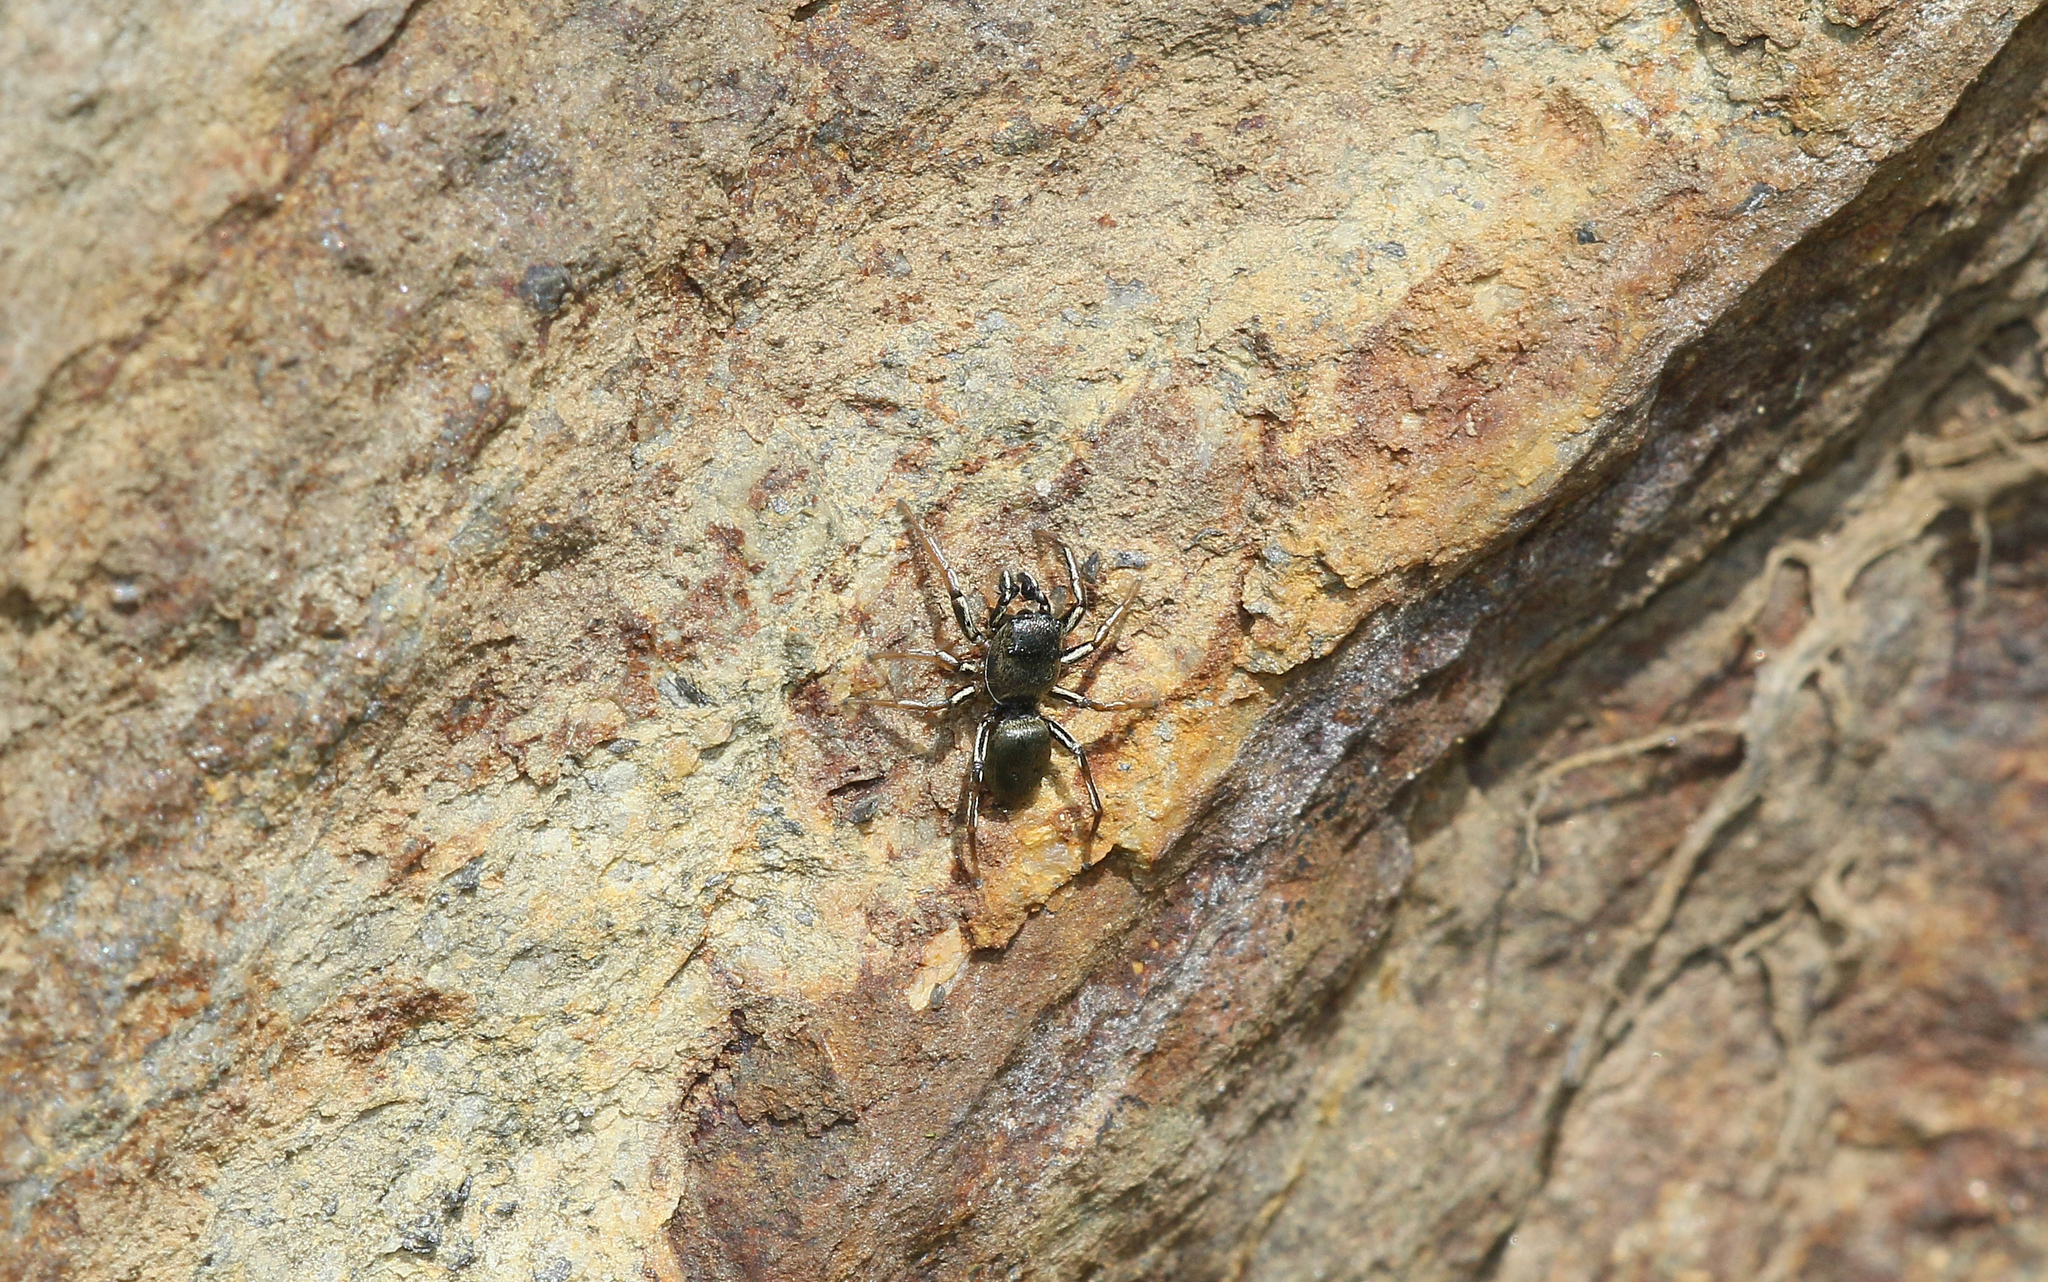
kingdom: Animalia
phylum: Arthropoda
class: Arachnida
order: Araneae
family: Salticidae
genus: Heliophanus
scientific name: Heliophanus cupreus
